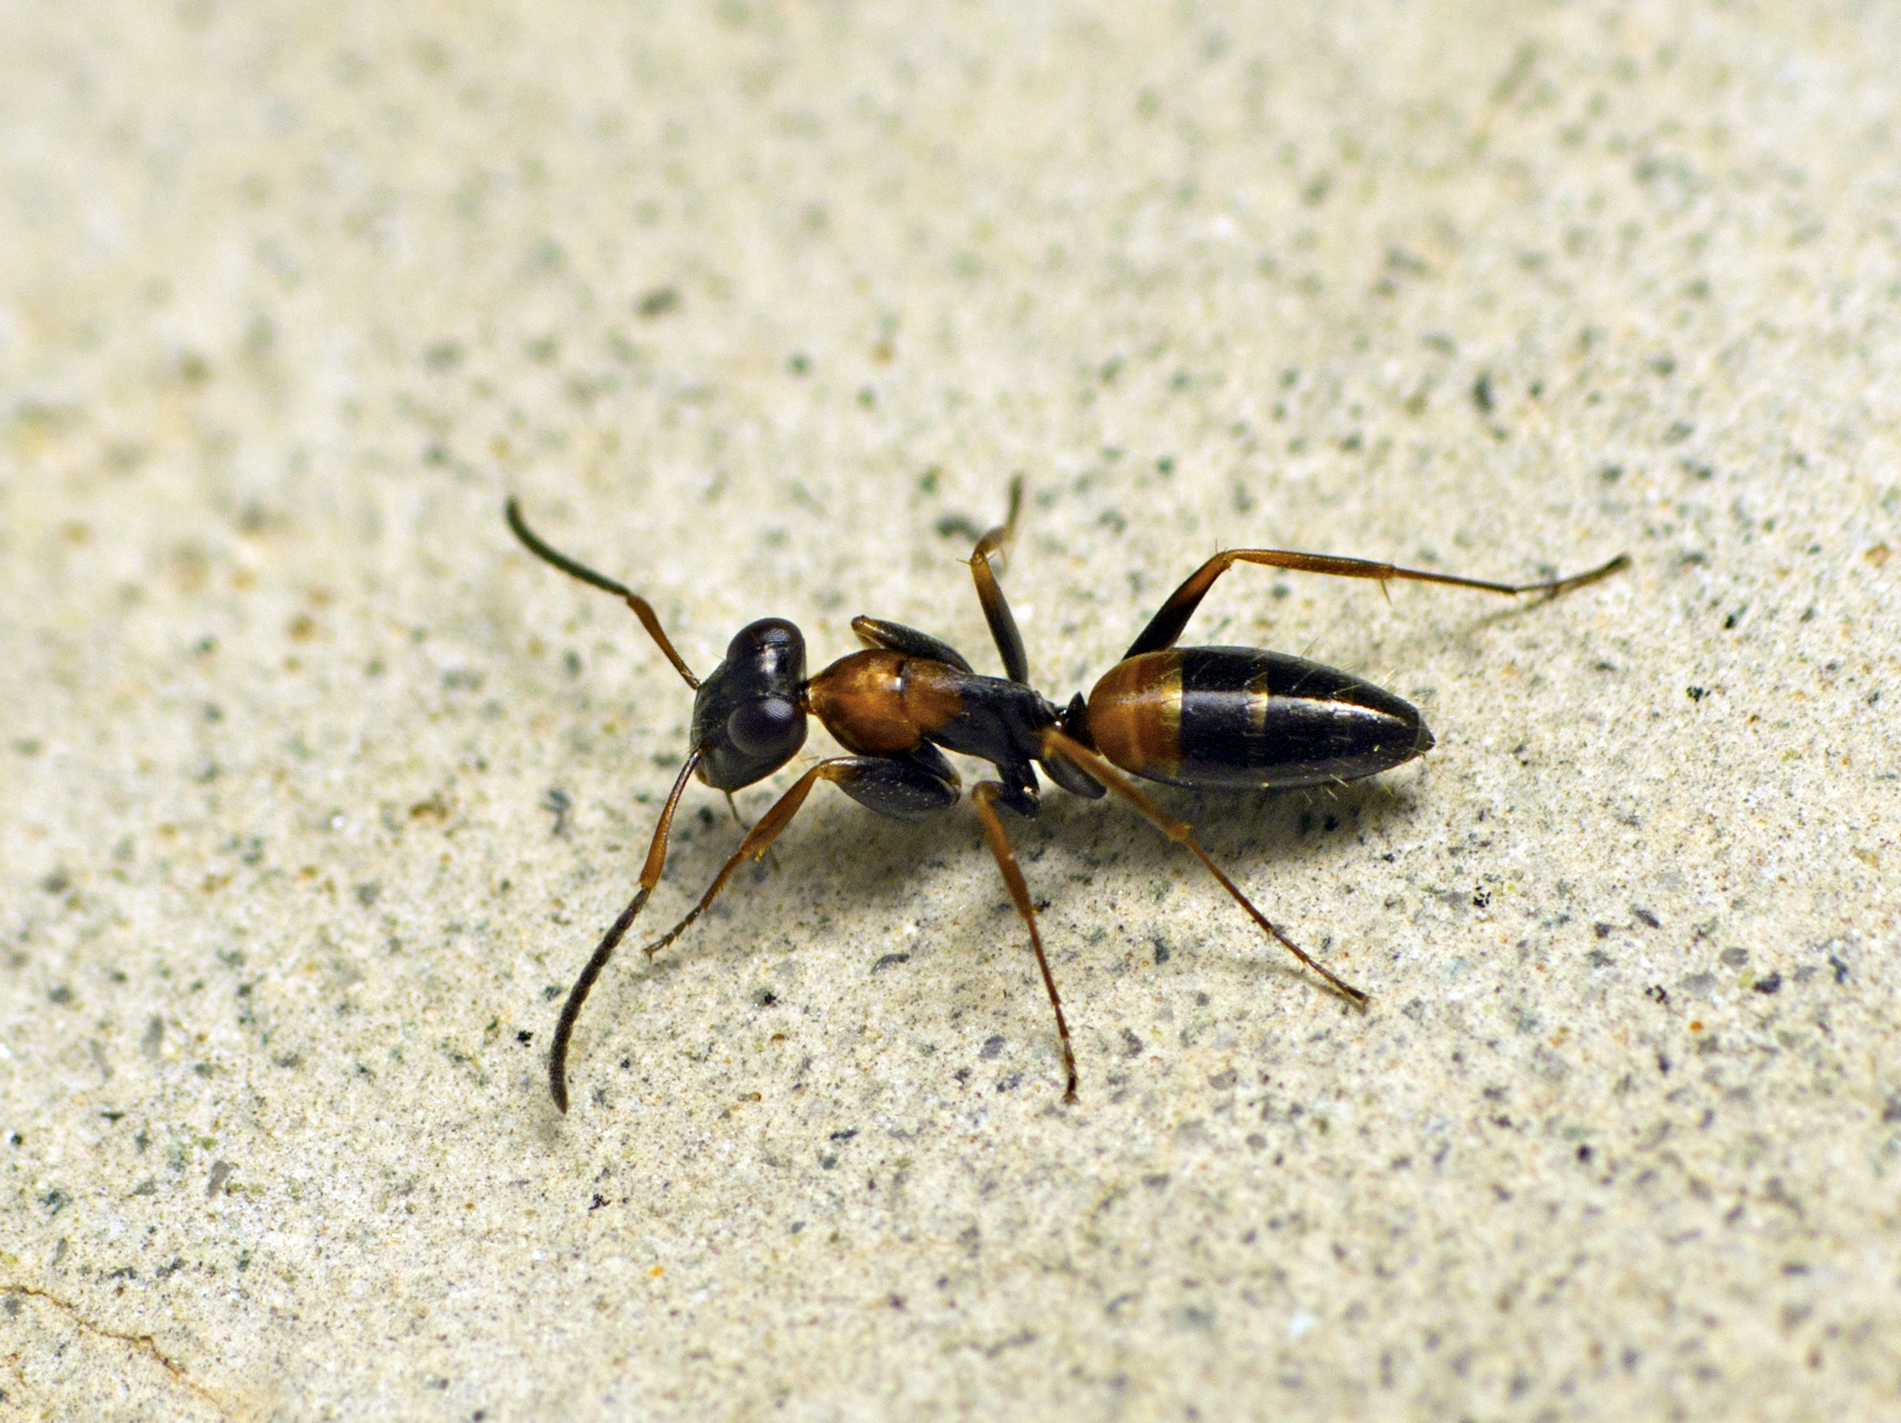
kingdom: Animalia
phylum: Arthropoda
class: Insecta
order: Hymenoptera
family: Formicidae
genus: Opisthopsis
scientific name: Opisthopsis pictus
